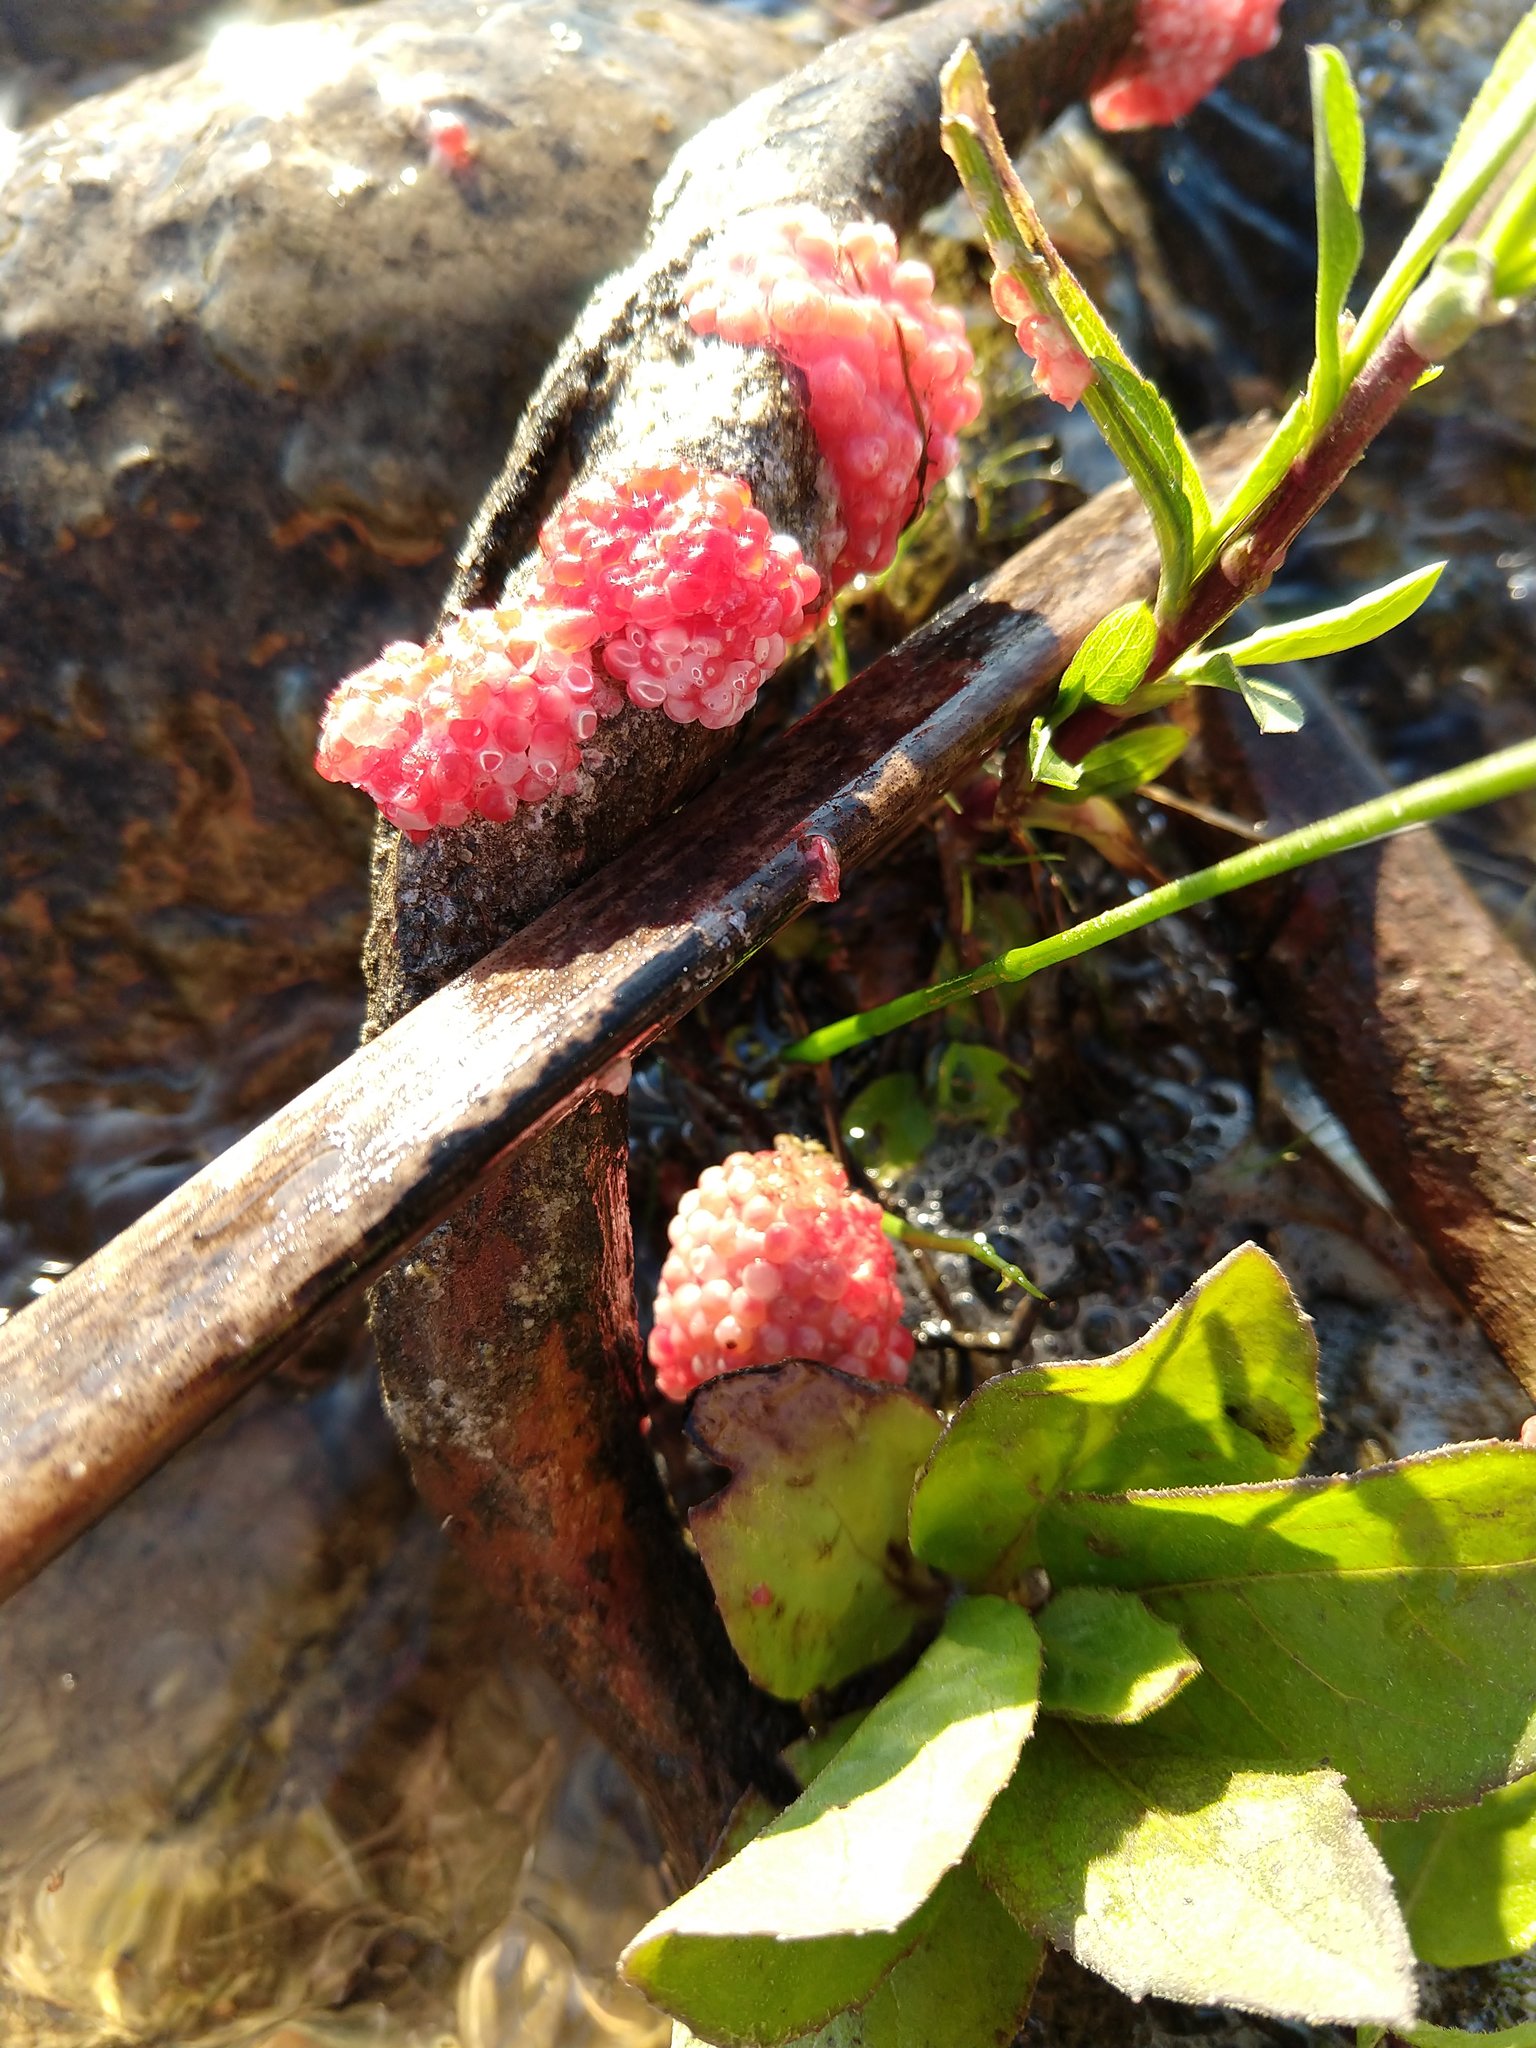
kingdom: Animalia
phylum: Mollusca
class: Gastropoda
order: Architaenioglossa
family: Ampullariidae
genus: Pomacea
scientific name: Pomacea canaliculata
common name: Channeled applesnail
